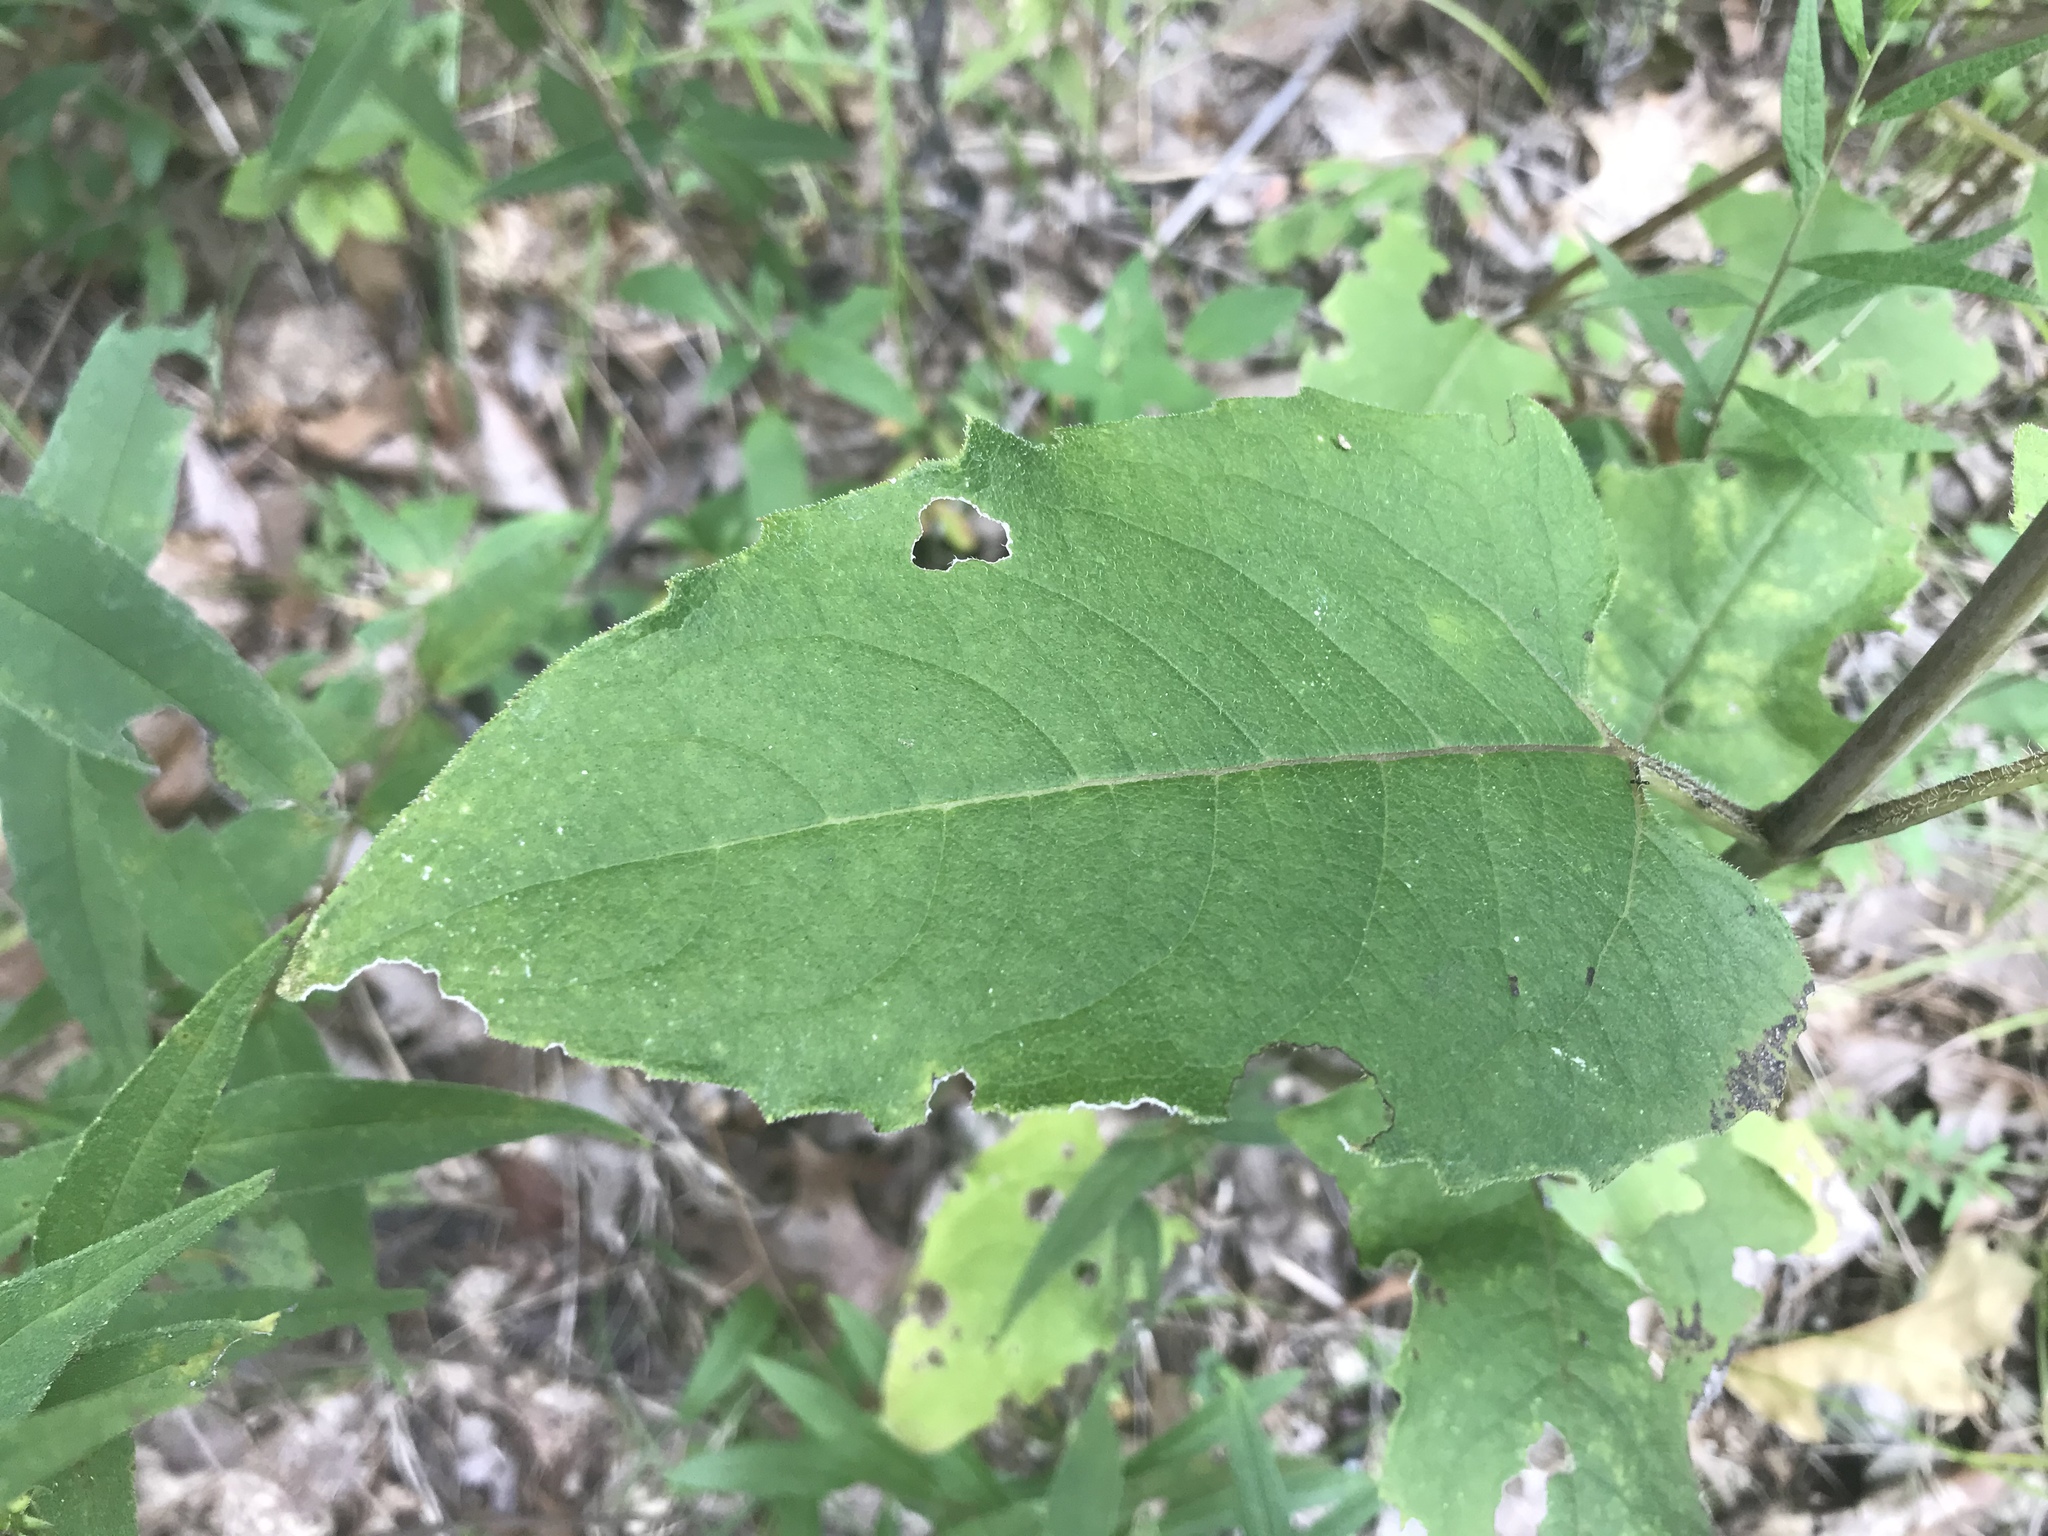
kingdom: Plantae
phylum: Tracheophyta
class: Magnoliopsida
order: Asterales
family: Asteraceae
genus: Silphium
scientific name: Silphium brachiatum
